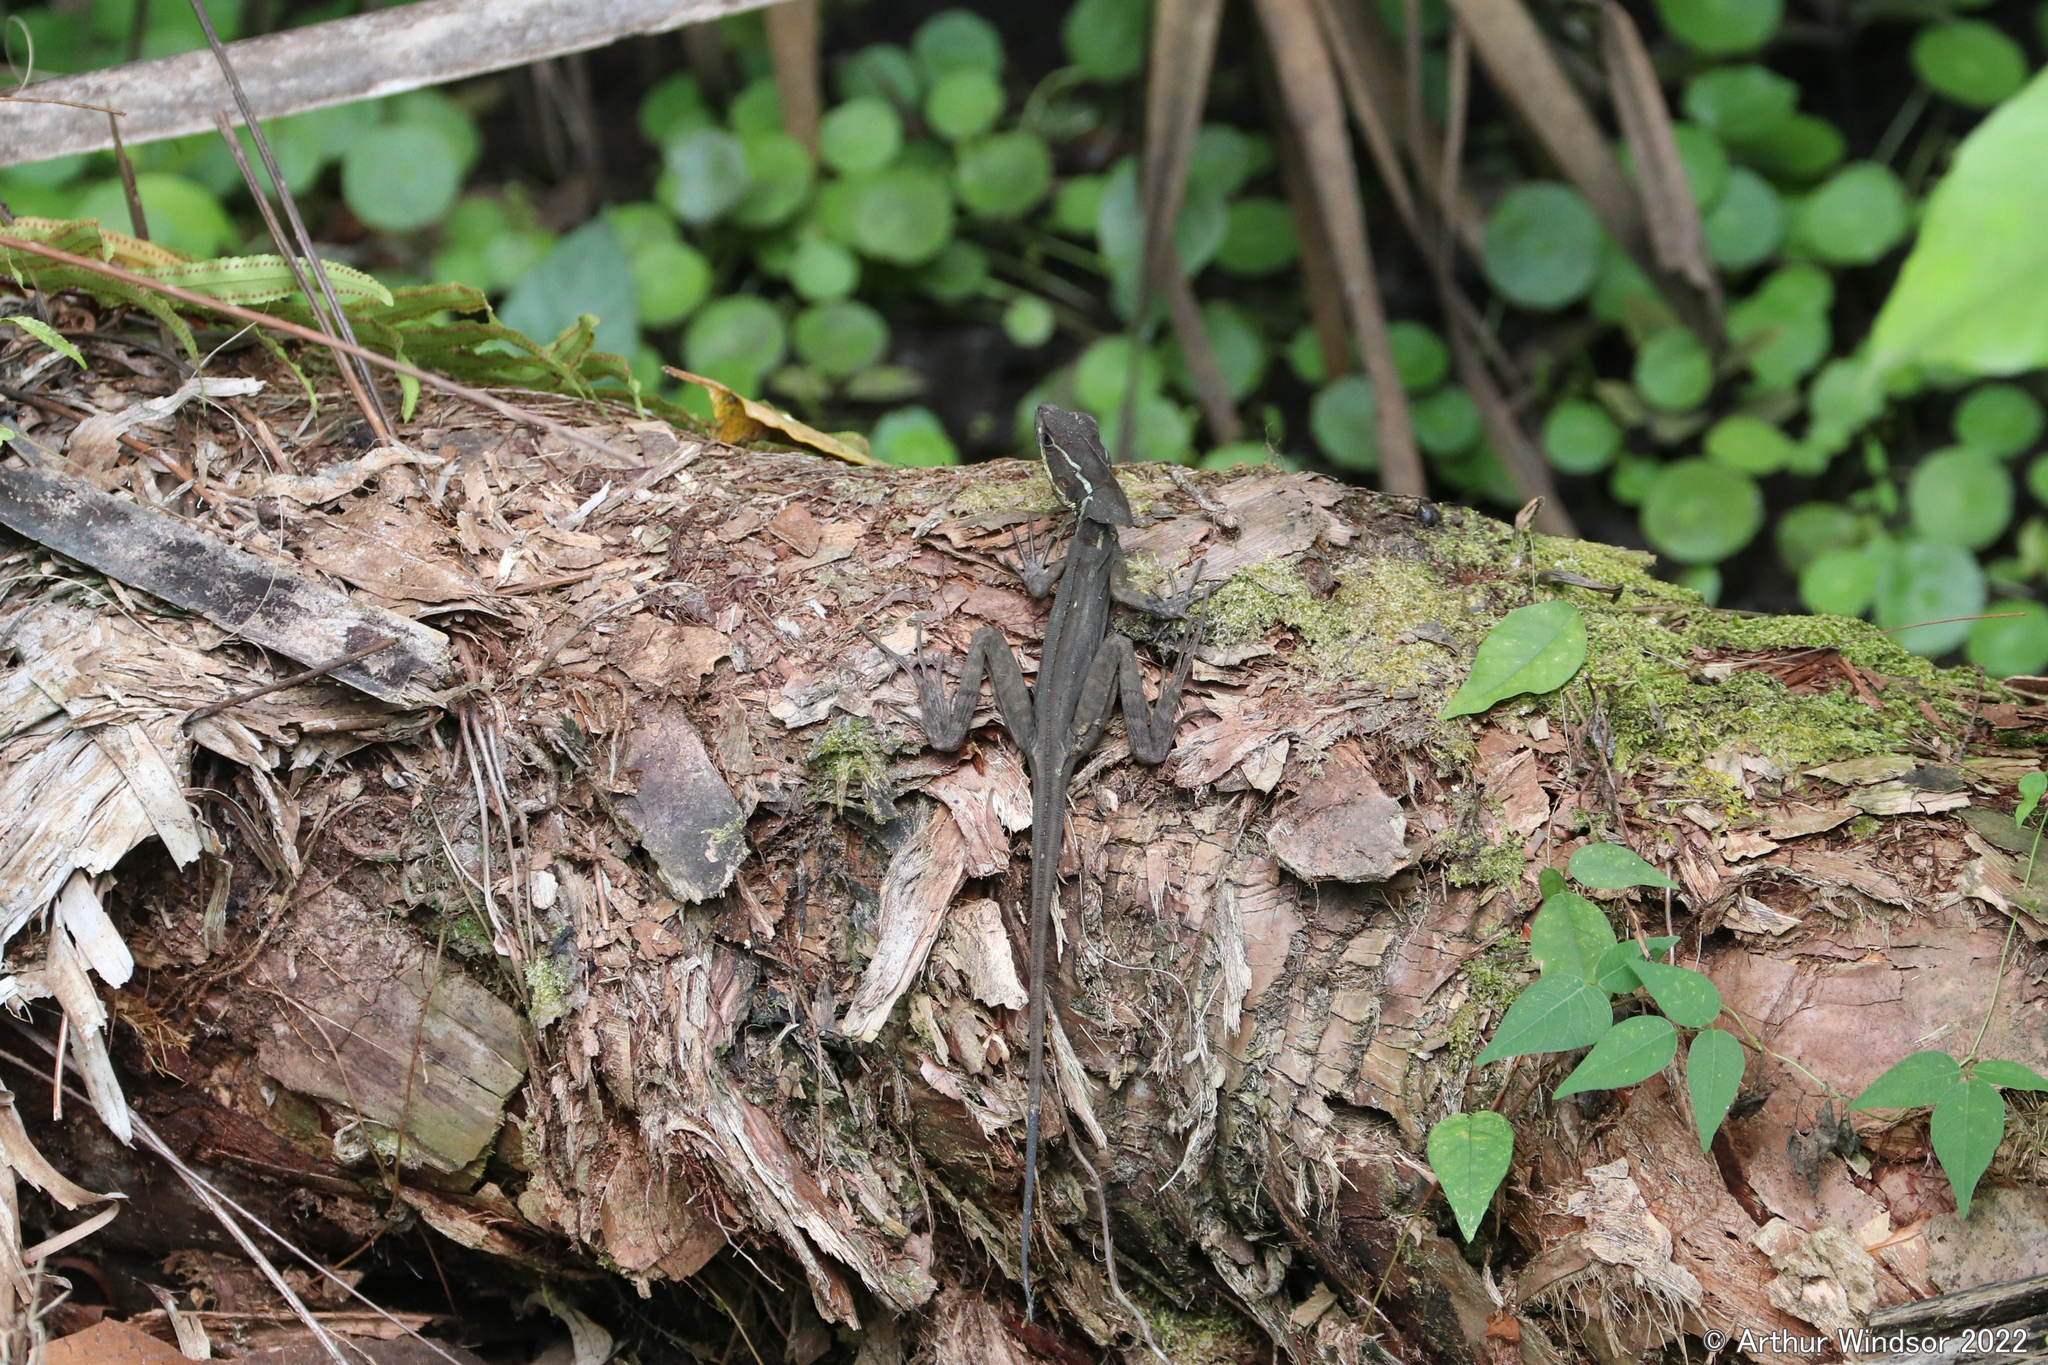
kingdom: Animalia
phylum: Chordata
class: Squamata
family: Corytophanidae
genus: Basiliscus
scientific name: Basiliscus vittatus
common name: Brown basilisk
